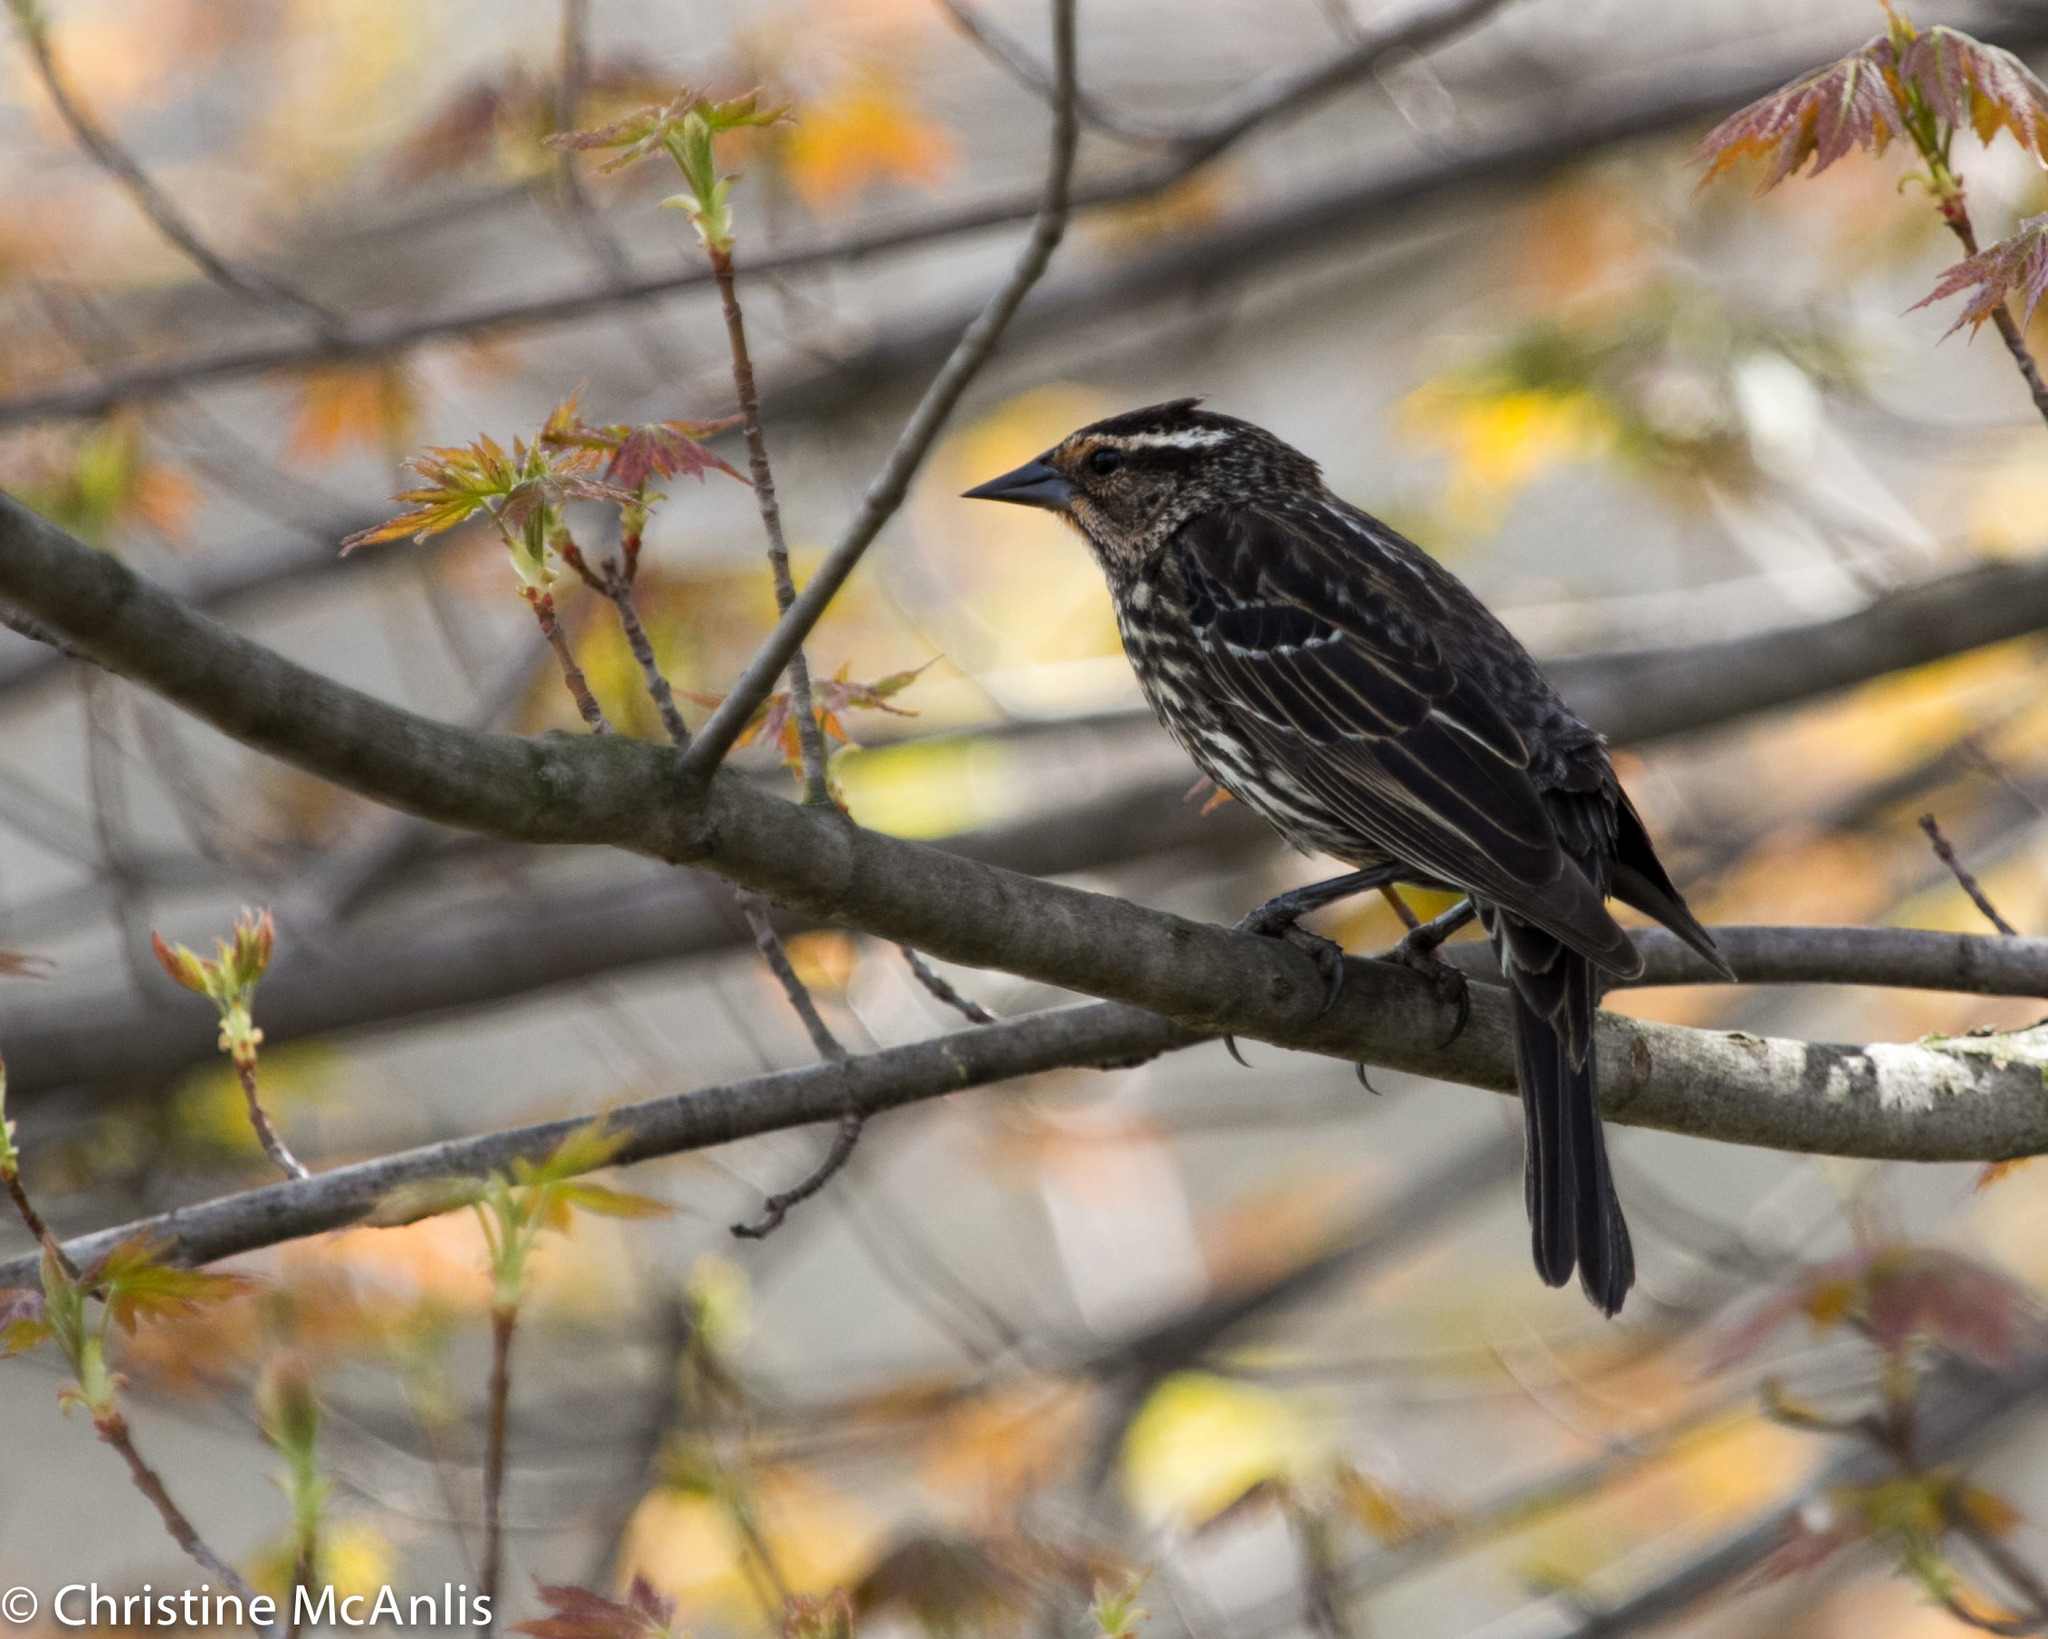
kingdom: Animalia
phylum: Chordata
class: Aves
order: Passeriformes
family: Icteridae
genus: Agelaius
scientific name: Agelaius phoeniceus
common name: Red-winged blackbird
